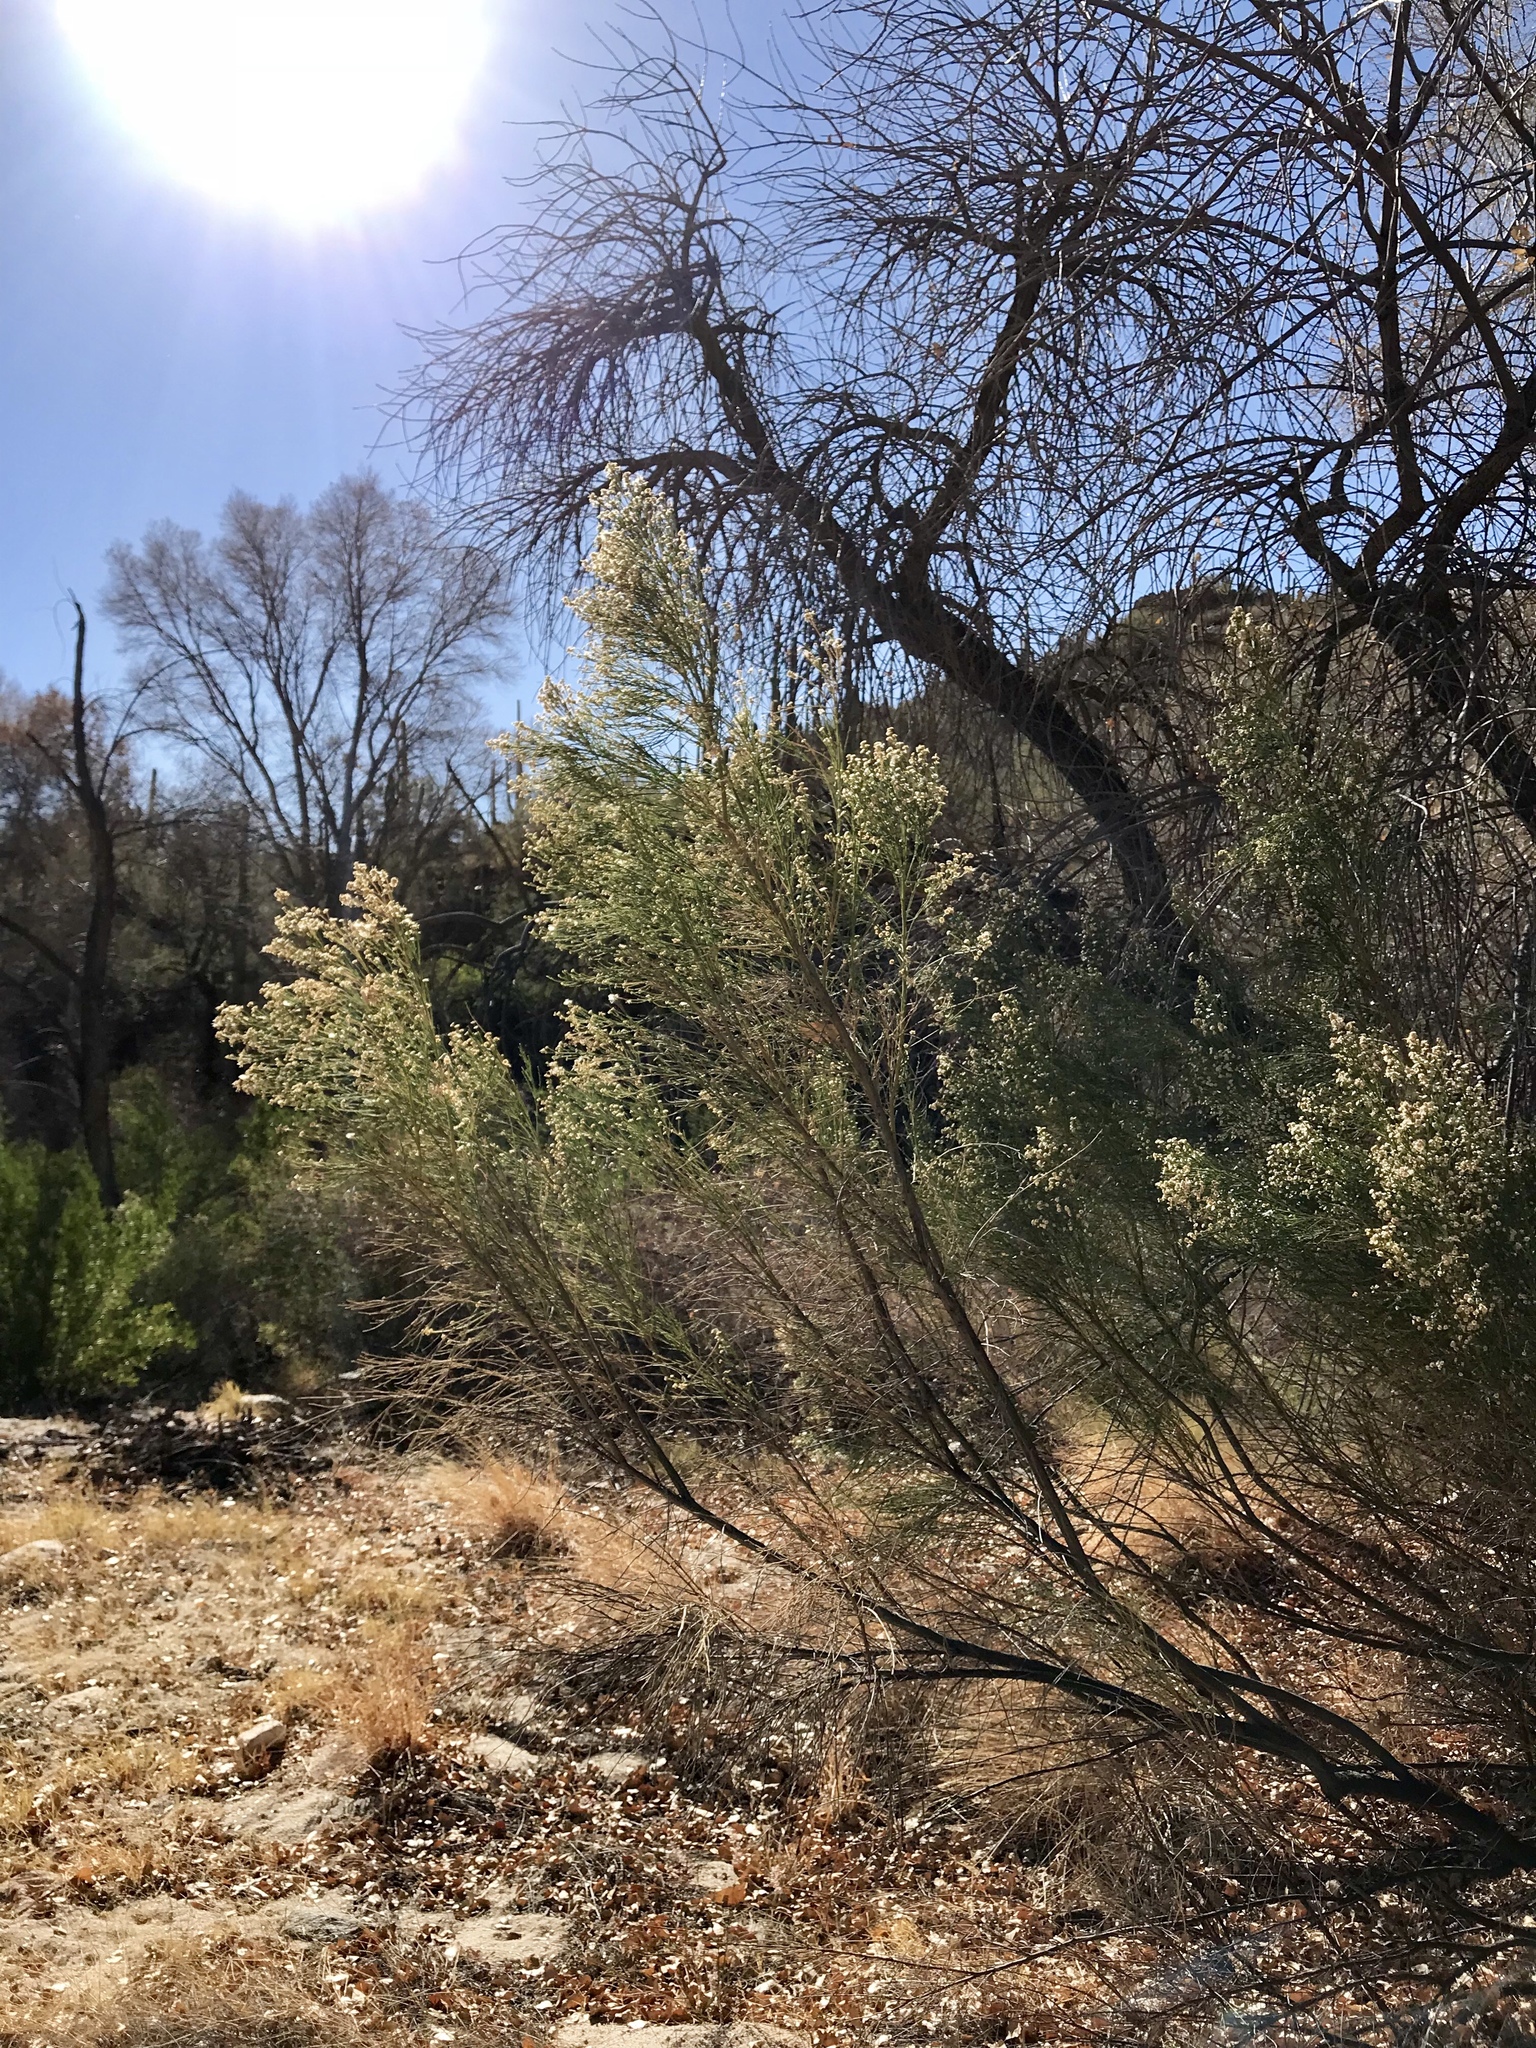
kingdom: Plantae
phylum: Tracheophyta
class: Magnoliopsida
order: Asterales
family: Asteraceae
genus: Baccharis
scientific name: Baccharis sarothroides
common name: Desert-broom
